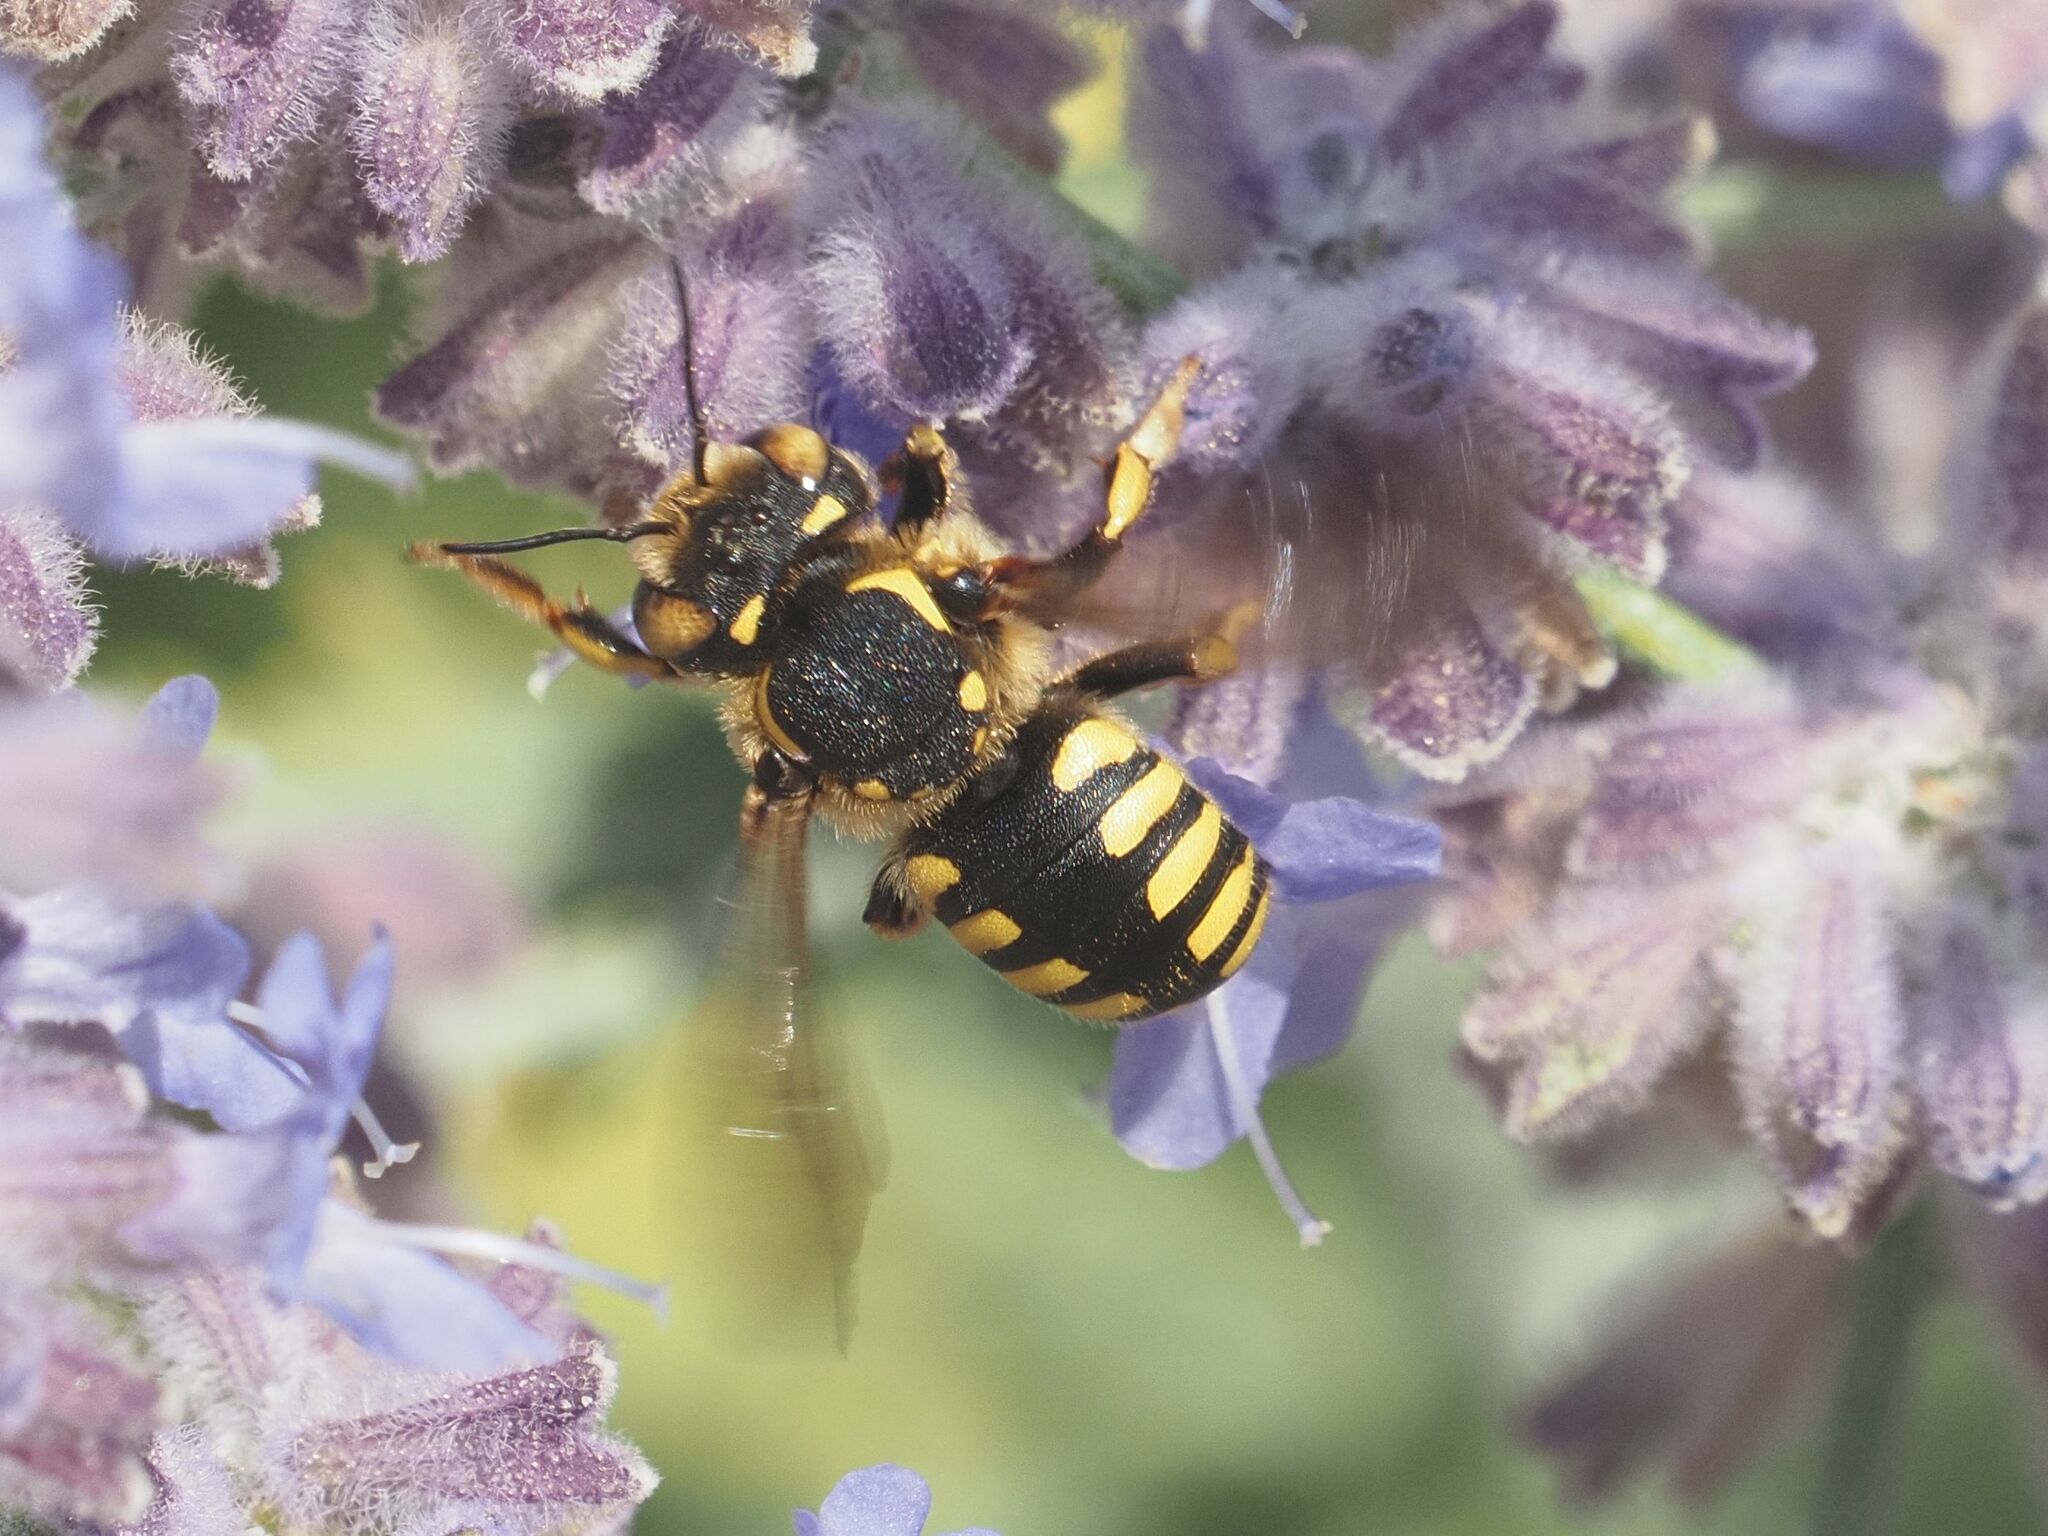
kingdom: Animalia
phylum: Arthropoda
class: Insecta
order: Hymenoptera
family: Megachilidae
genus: Anthidium
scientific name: Anthidium florentinum
